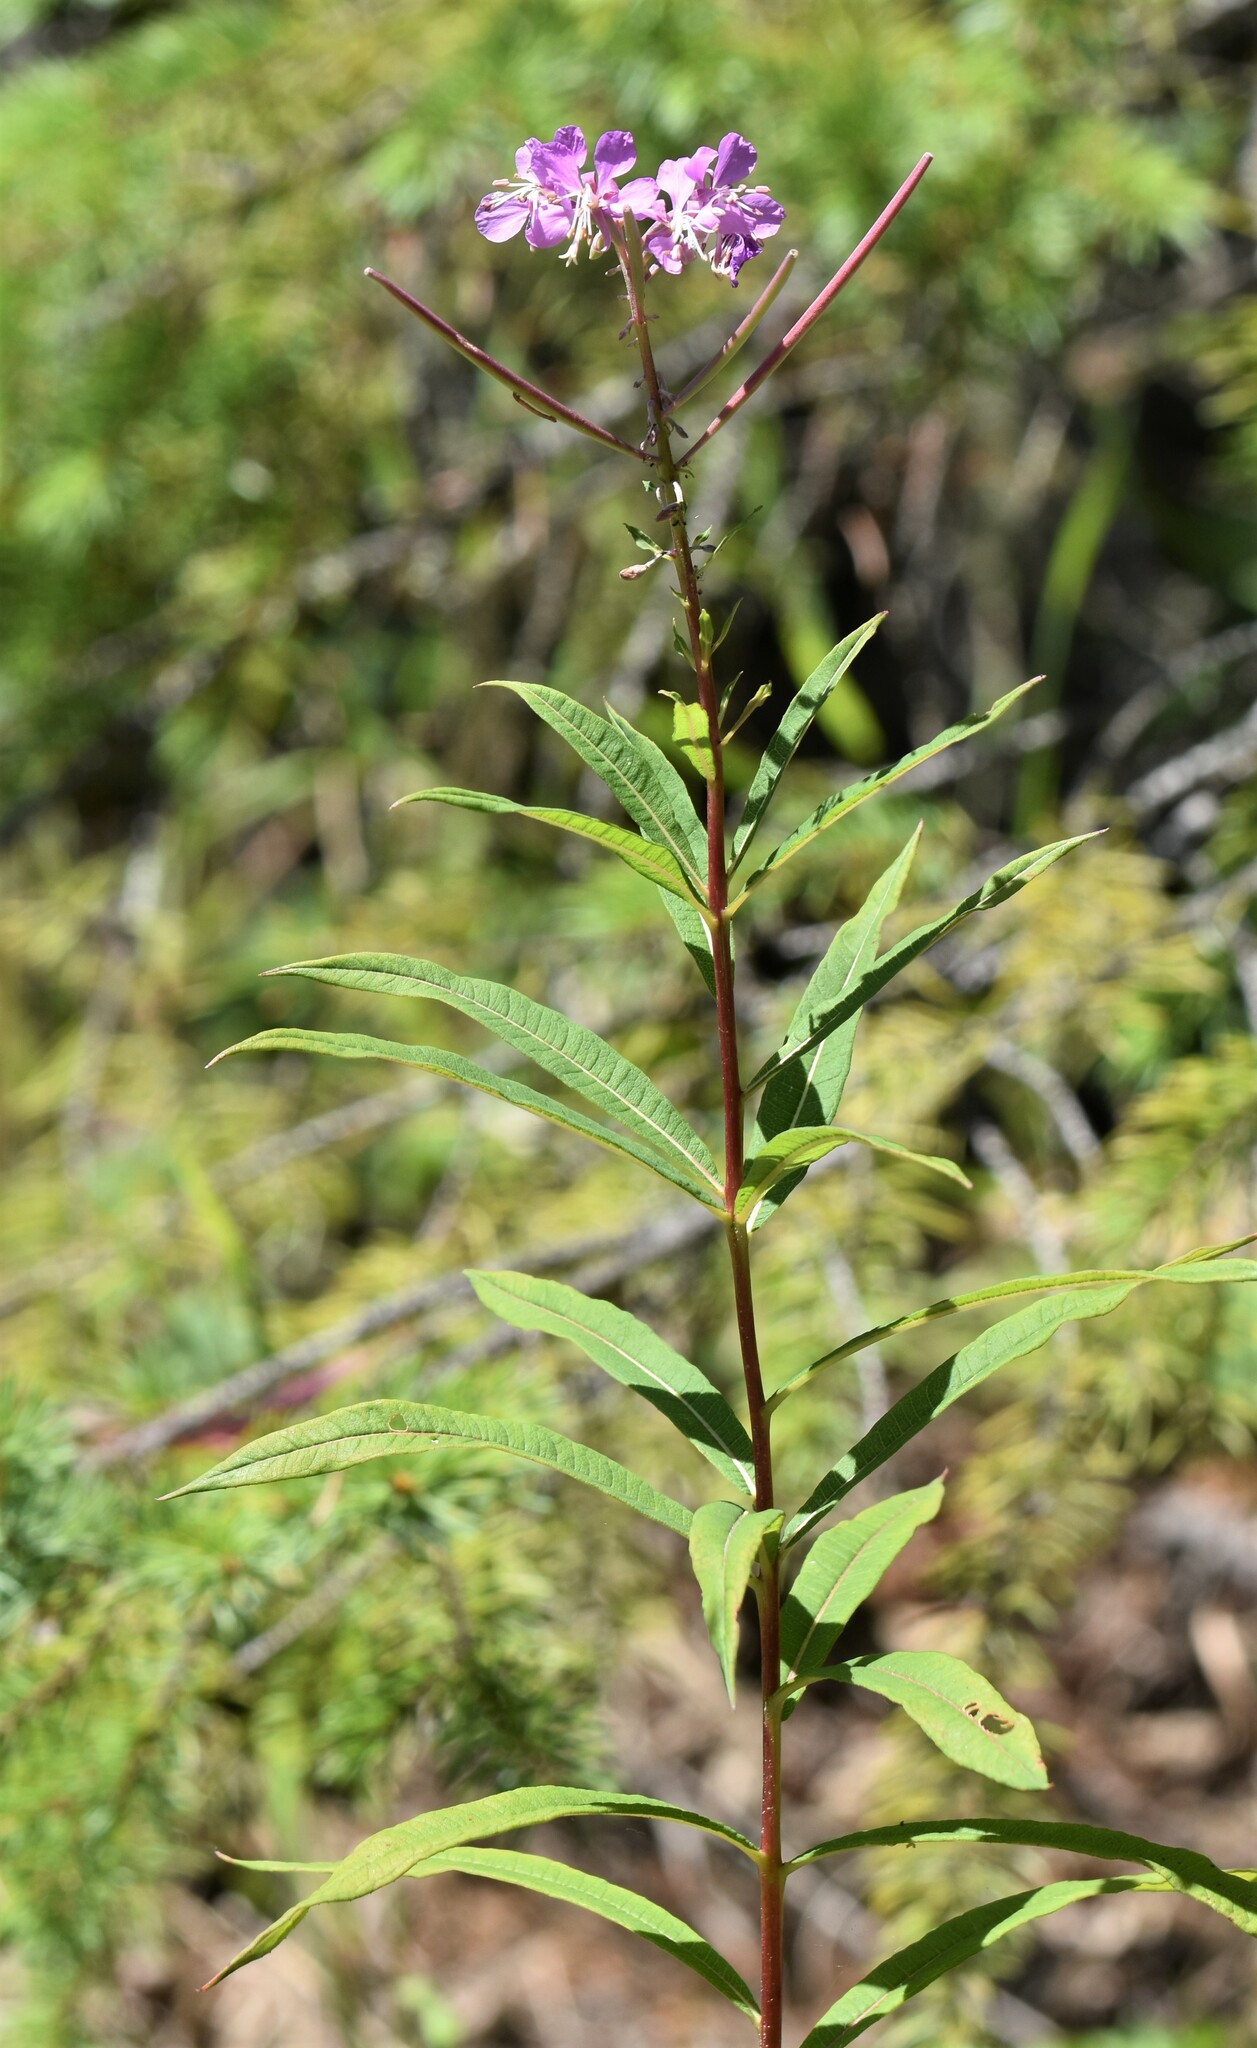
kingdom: Plantae
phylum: Tracheophyta
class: Magnoliopsida
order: Myrtales
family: Onagraceae
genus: Chamaenerion
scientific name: Chamaenerion angustifolium
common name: Fireweed
